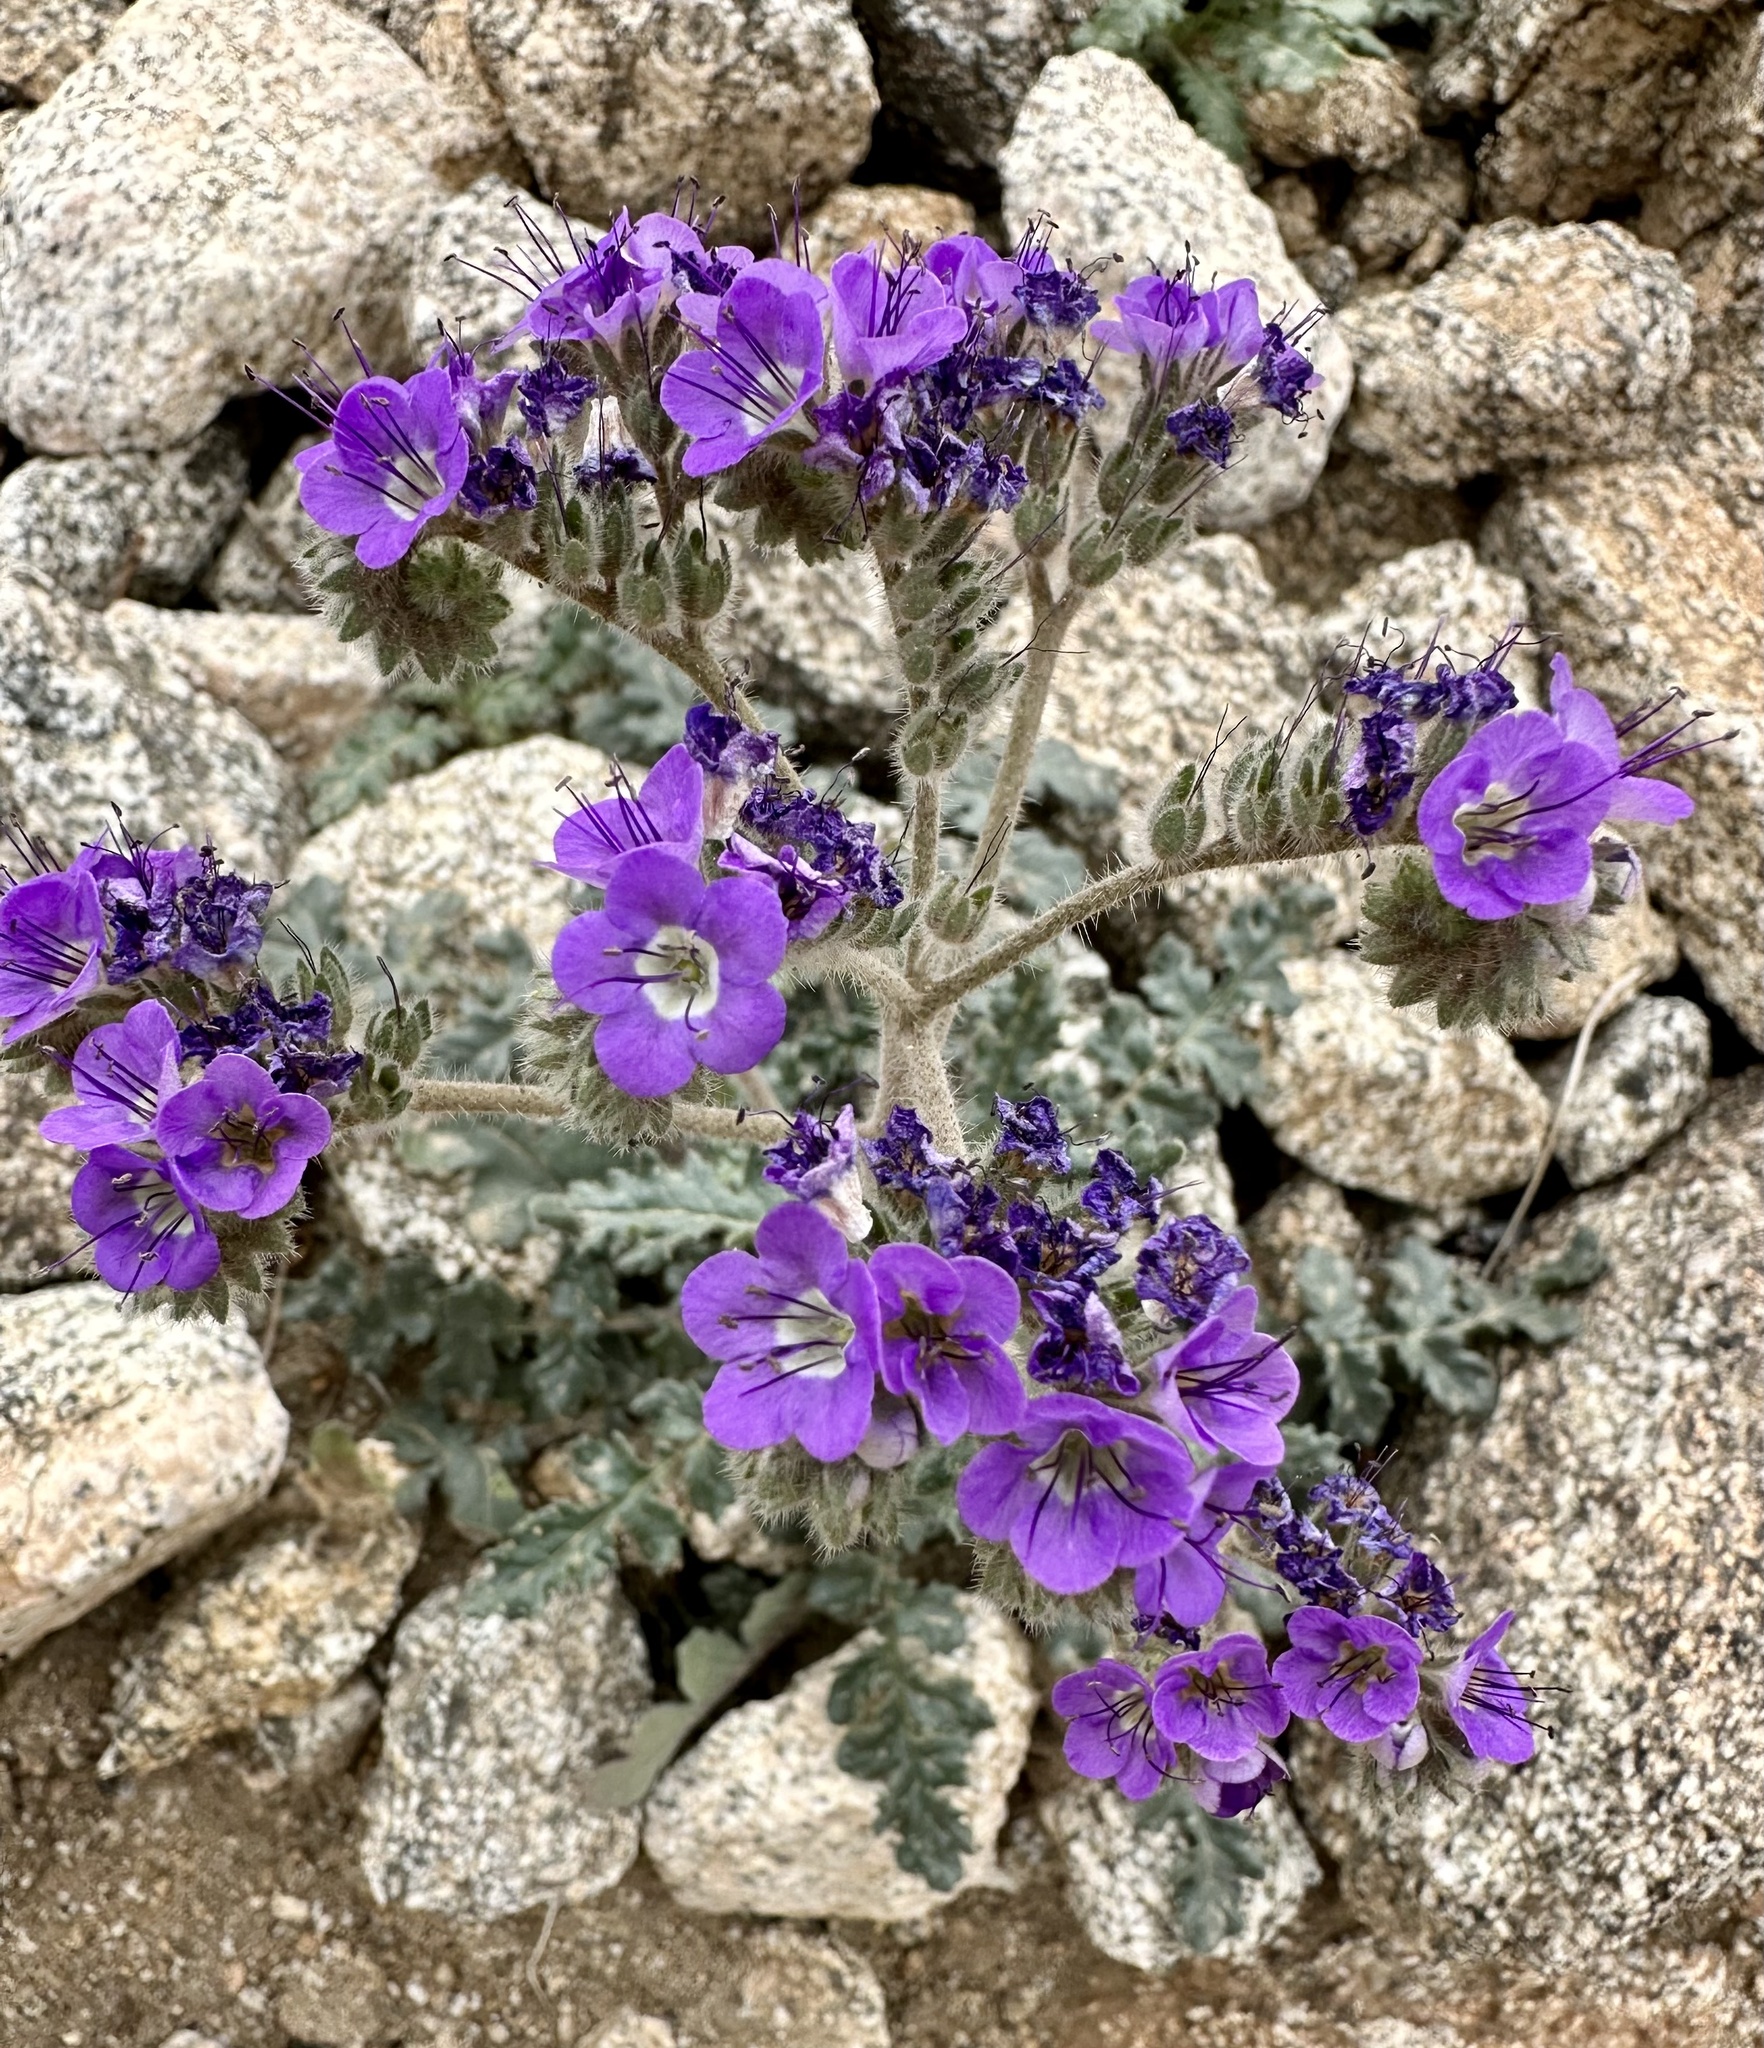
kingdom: Plantae
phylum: Tracheophyta
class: Magnoliopsida
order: Boraginales
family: Hydrophyllaceae
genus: Phacelia
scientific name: Phacelia crenulata
